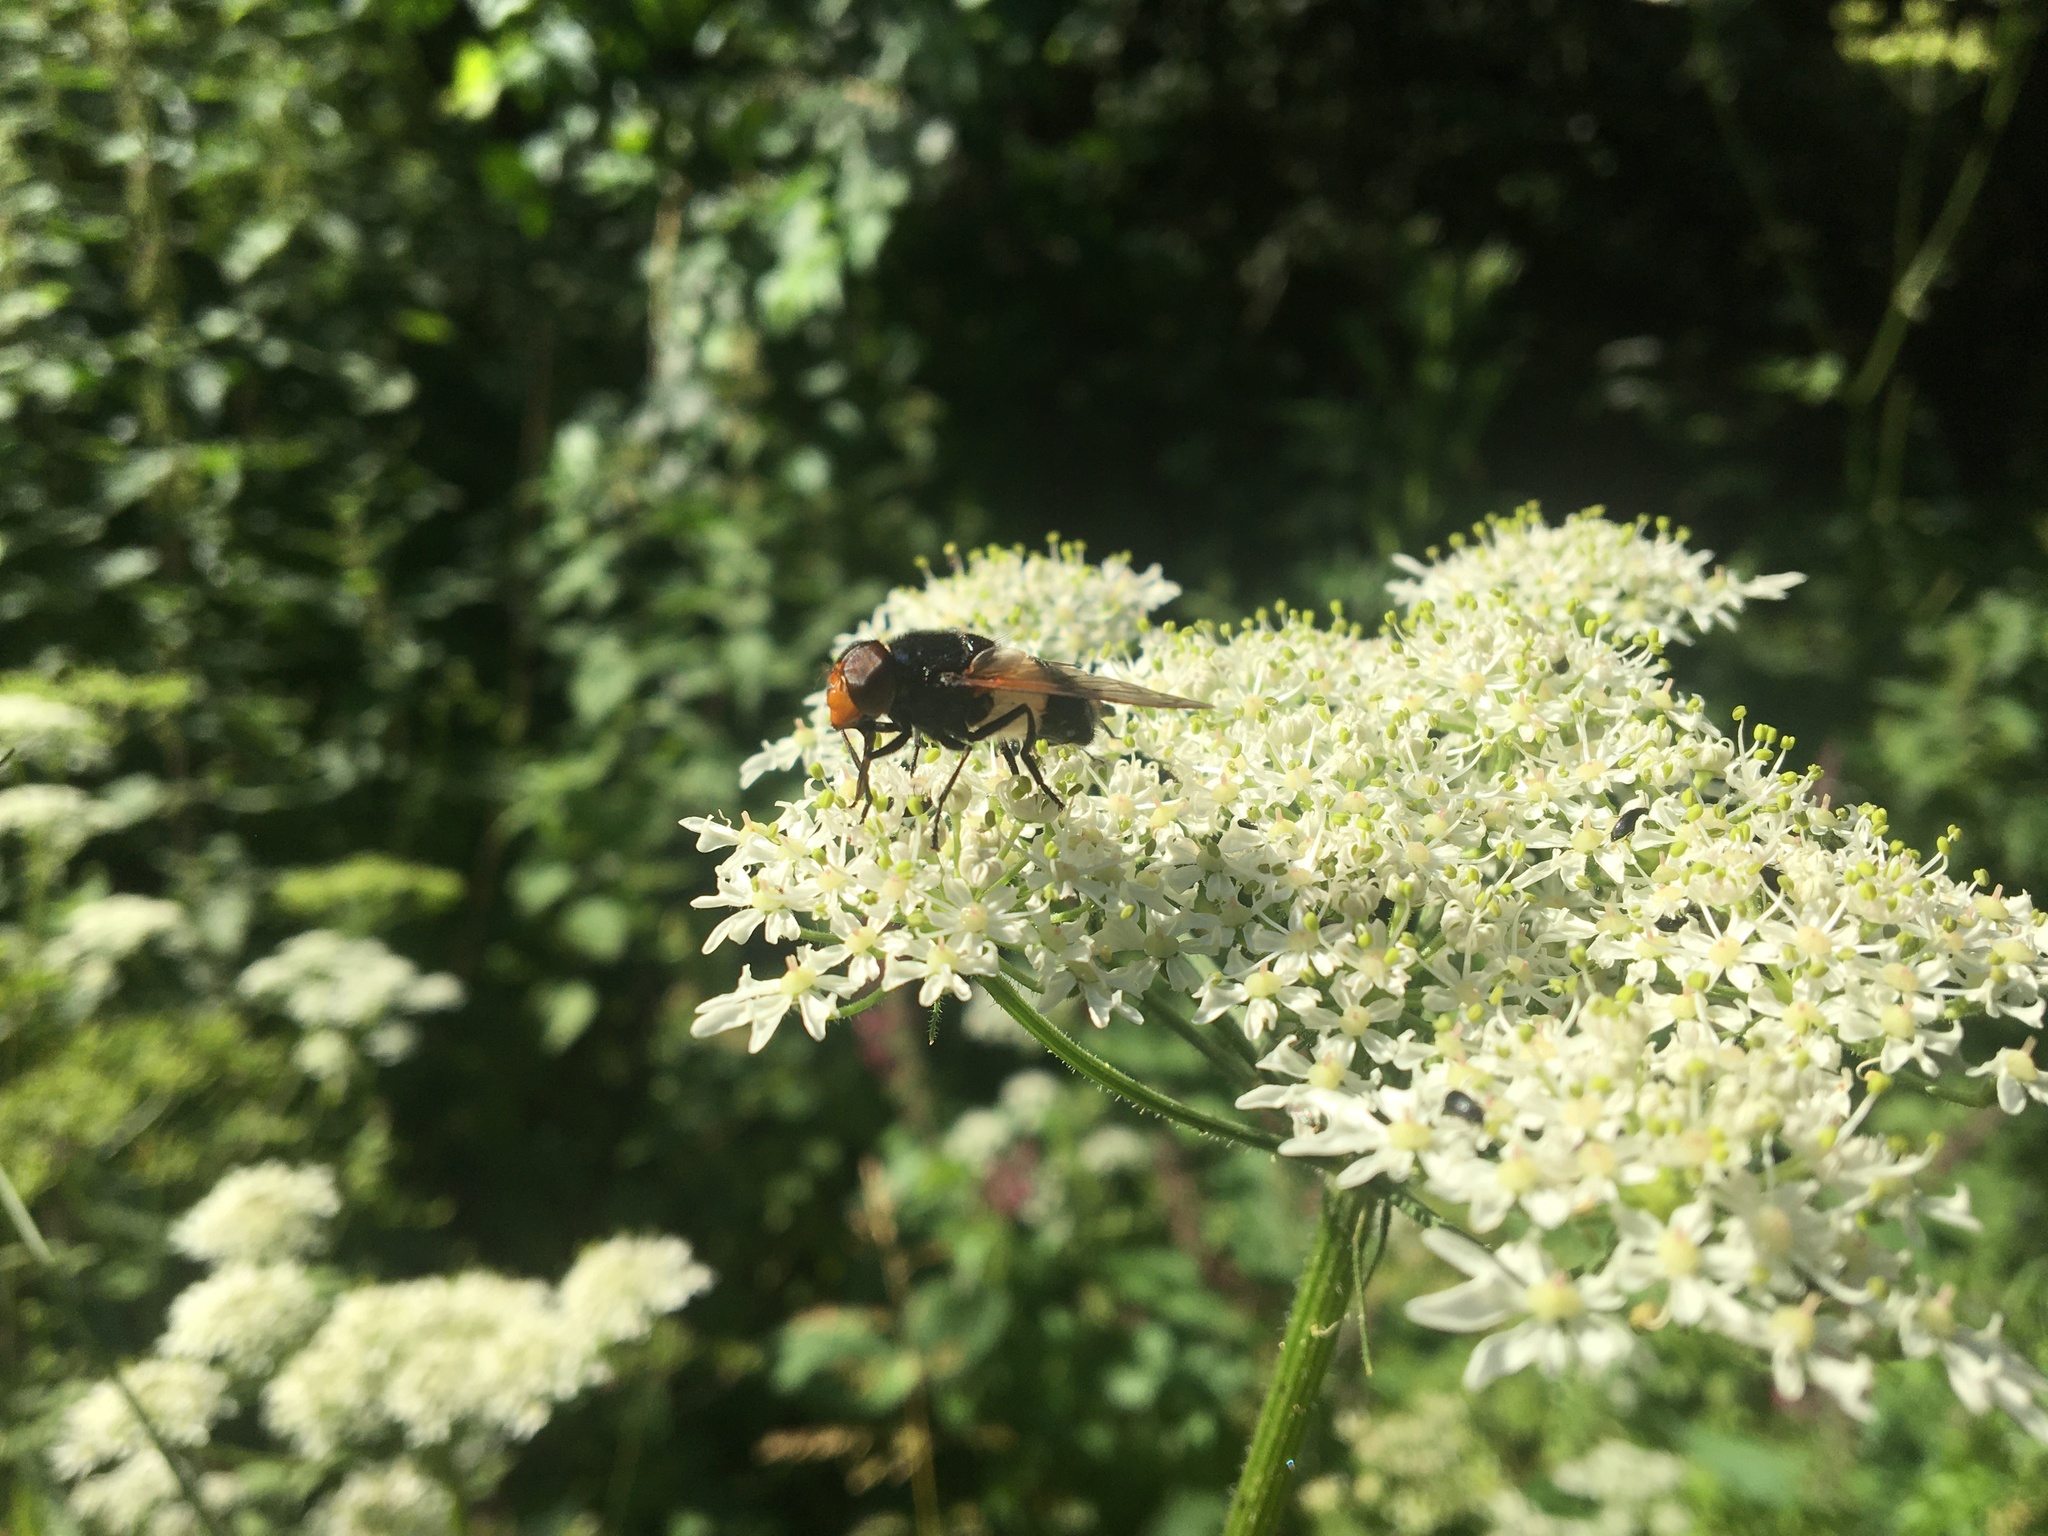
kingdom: Animalia
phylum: Arthropoda
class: Insecta
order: Diptera
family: Syrphidae
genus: Volucella
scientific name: Volucella pellucens
